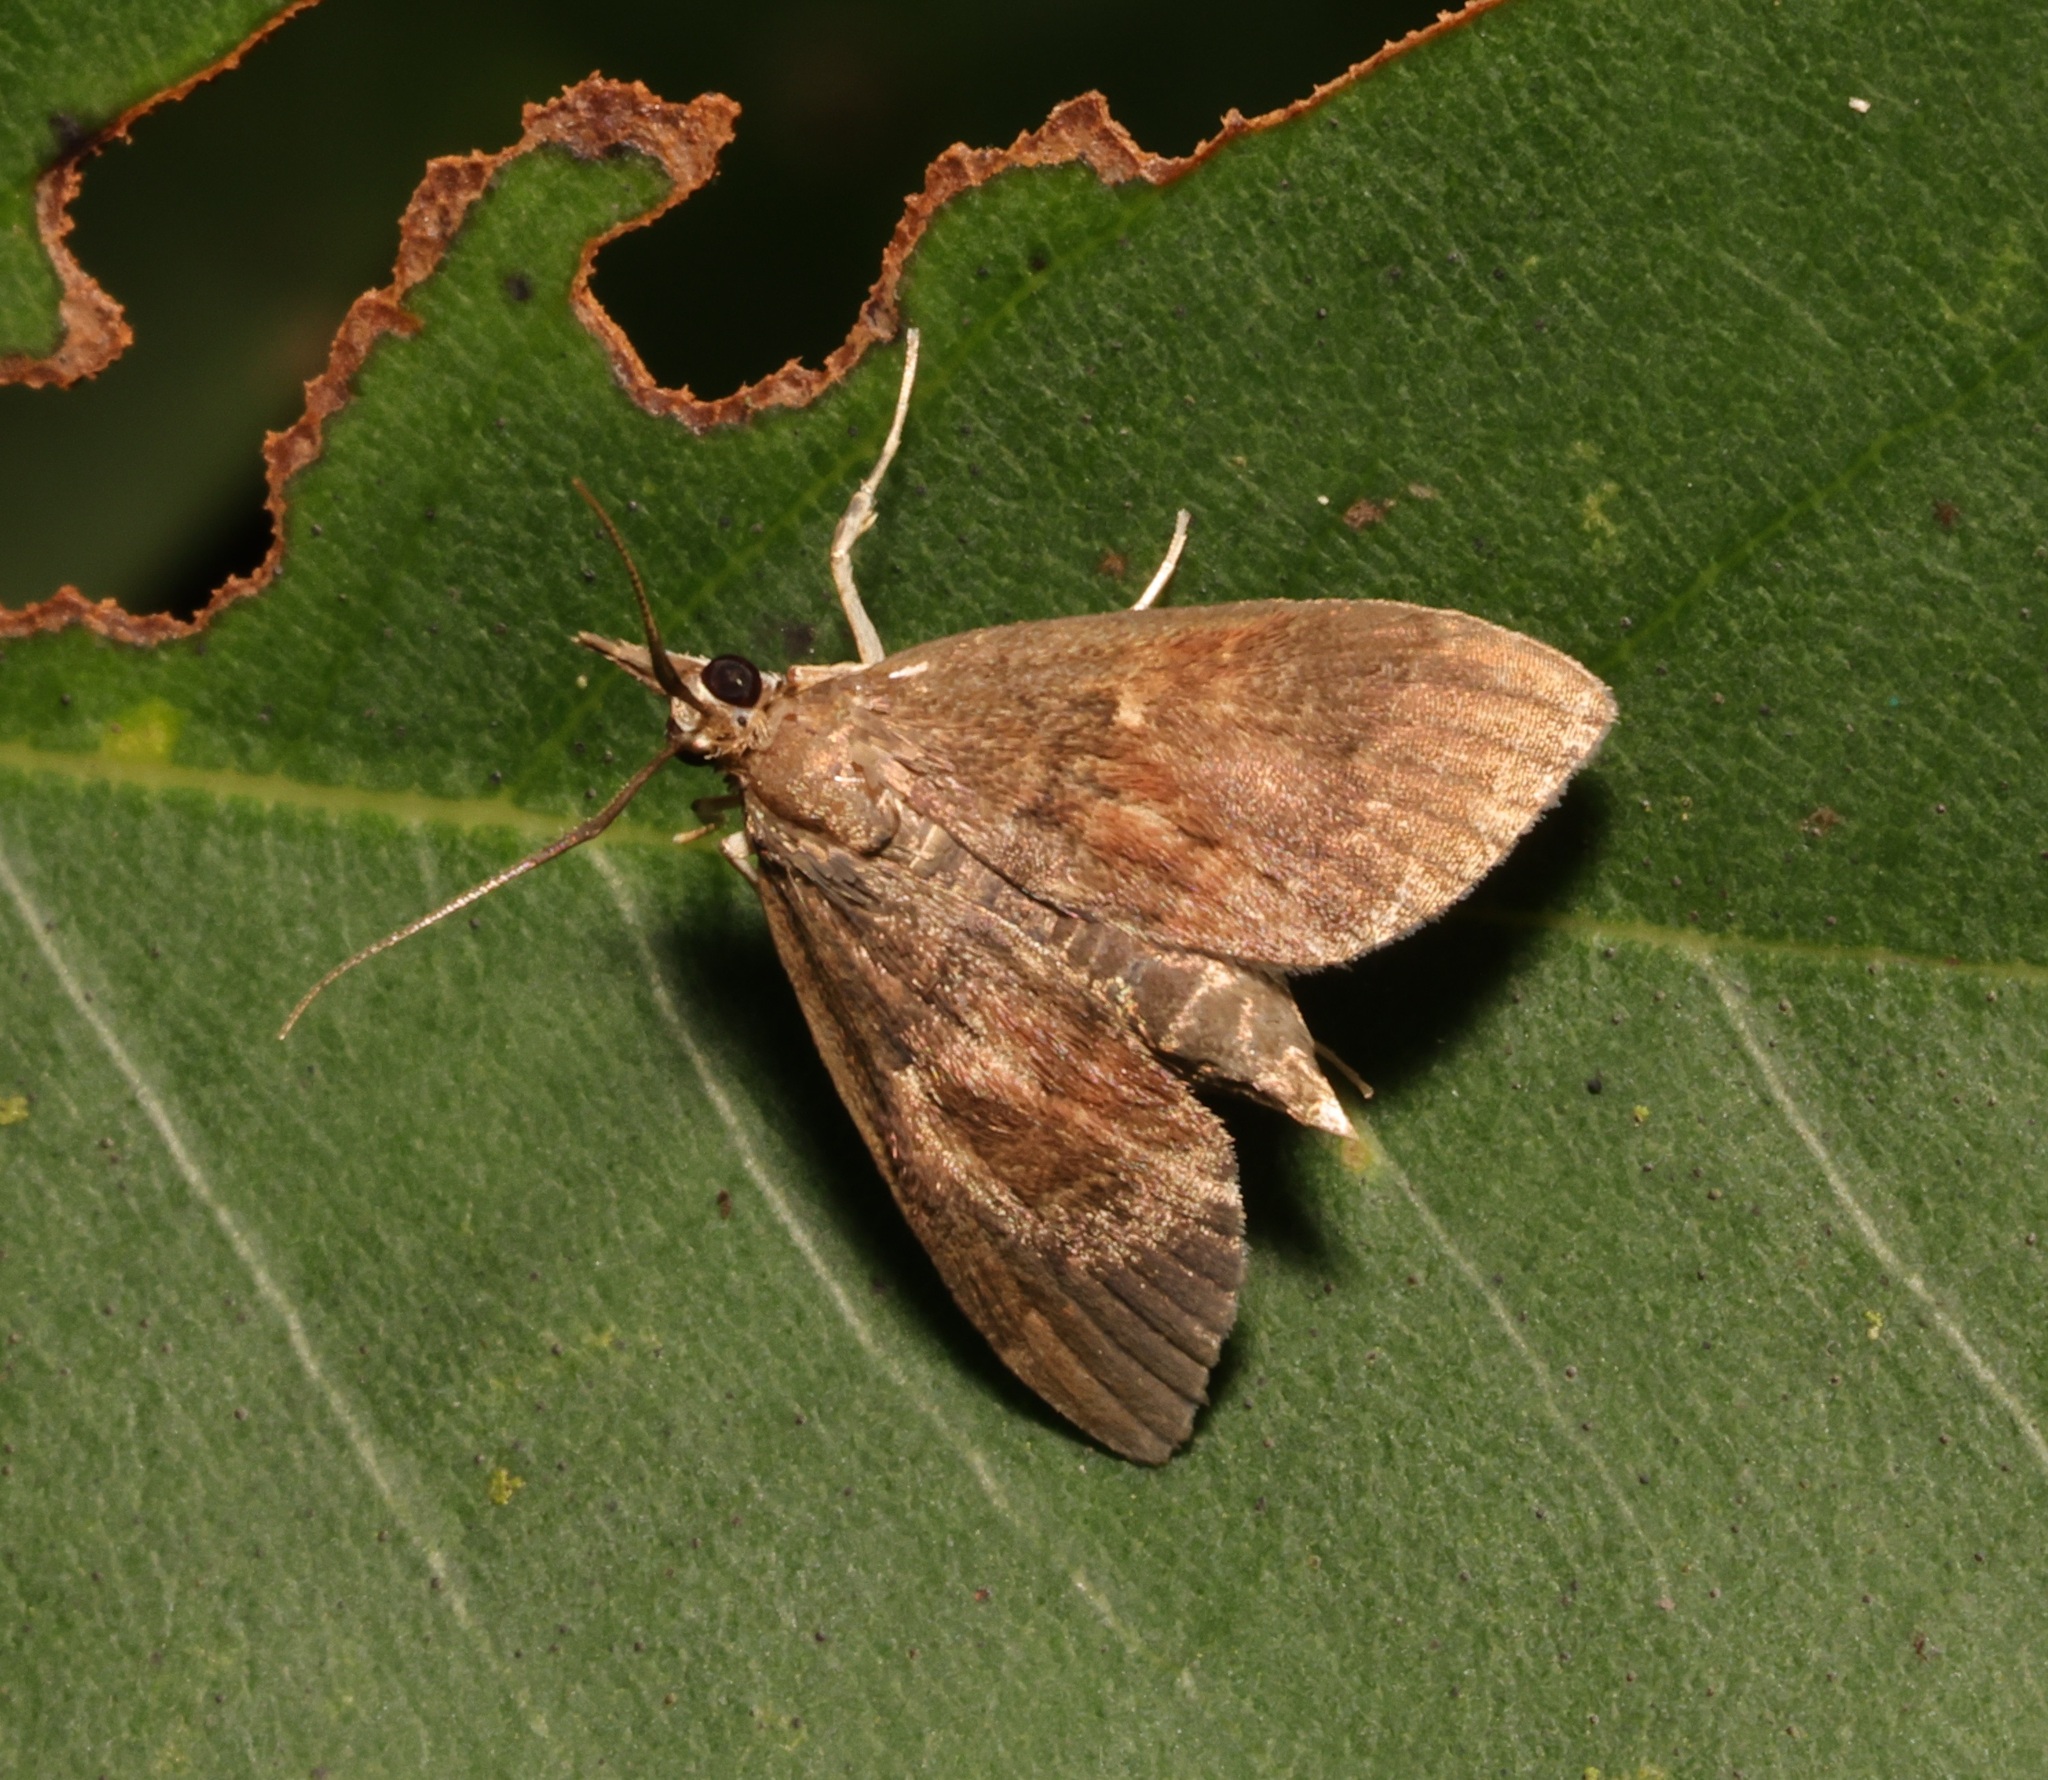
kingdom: Animalia
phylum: Arthropoda
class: Insecta
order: Lepidoptera
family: Crambidae
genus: Camptomastix
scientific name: Camptomastix hisbonalis
